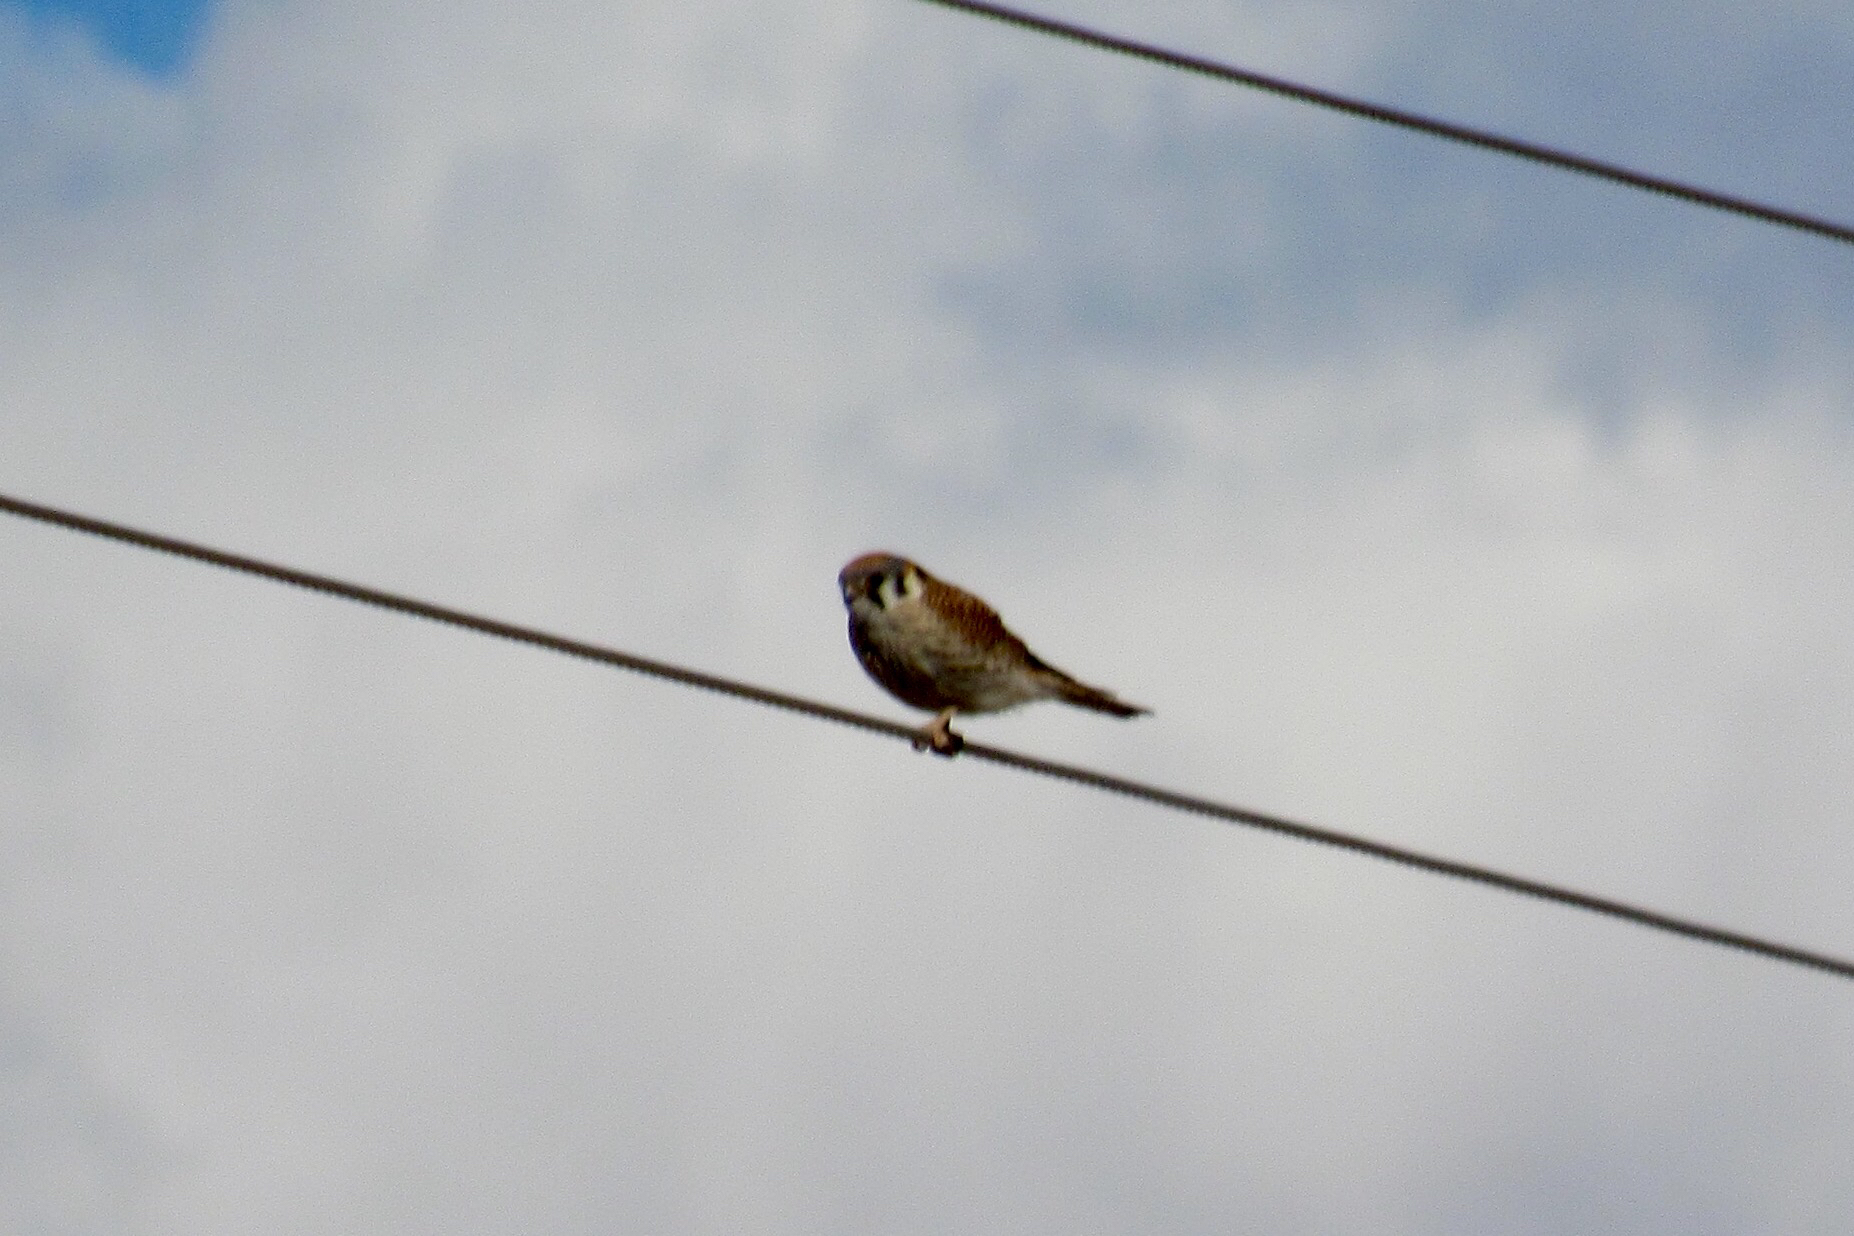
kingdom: Animalia
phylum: Chordata
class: Aves
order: Falconiformes
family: Falconidae
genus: Falco
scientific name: Falco sparverius
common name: American kestrel
